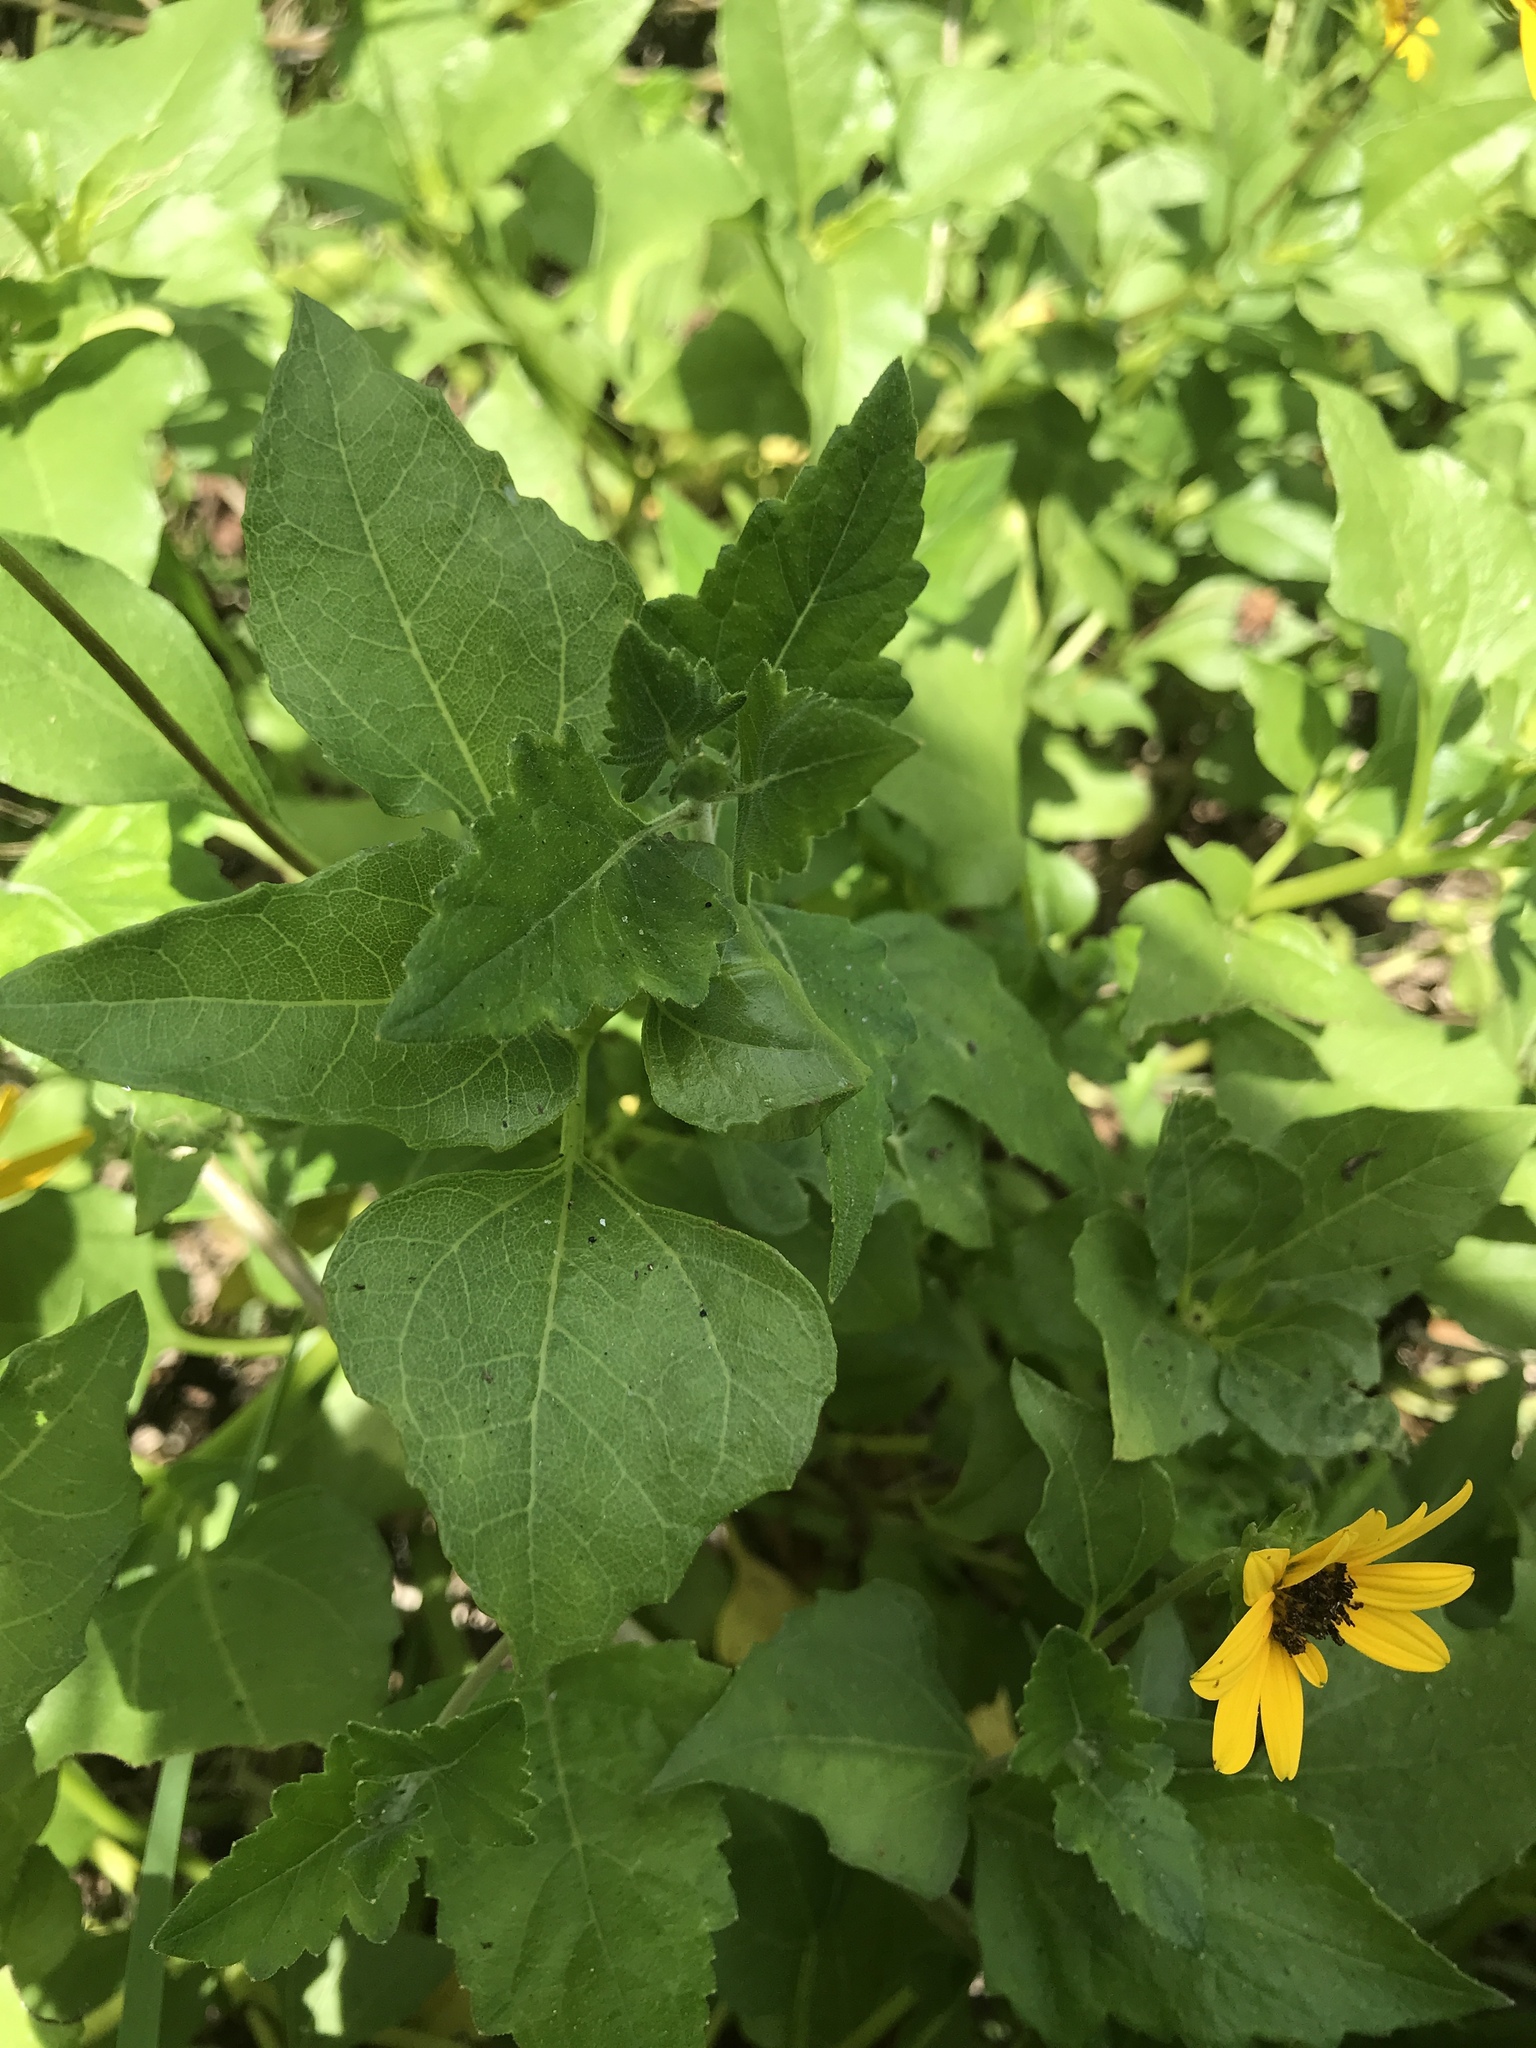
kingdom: Plantae
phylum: Tracheophyta
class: Magnoliopsida
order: Asterales
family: Asteraceae
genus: Helianthus
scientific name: Helianthus debilis
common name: Weak sunflower
